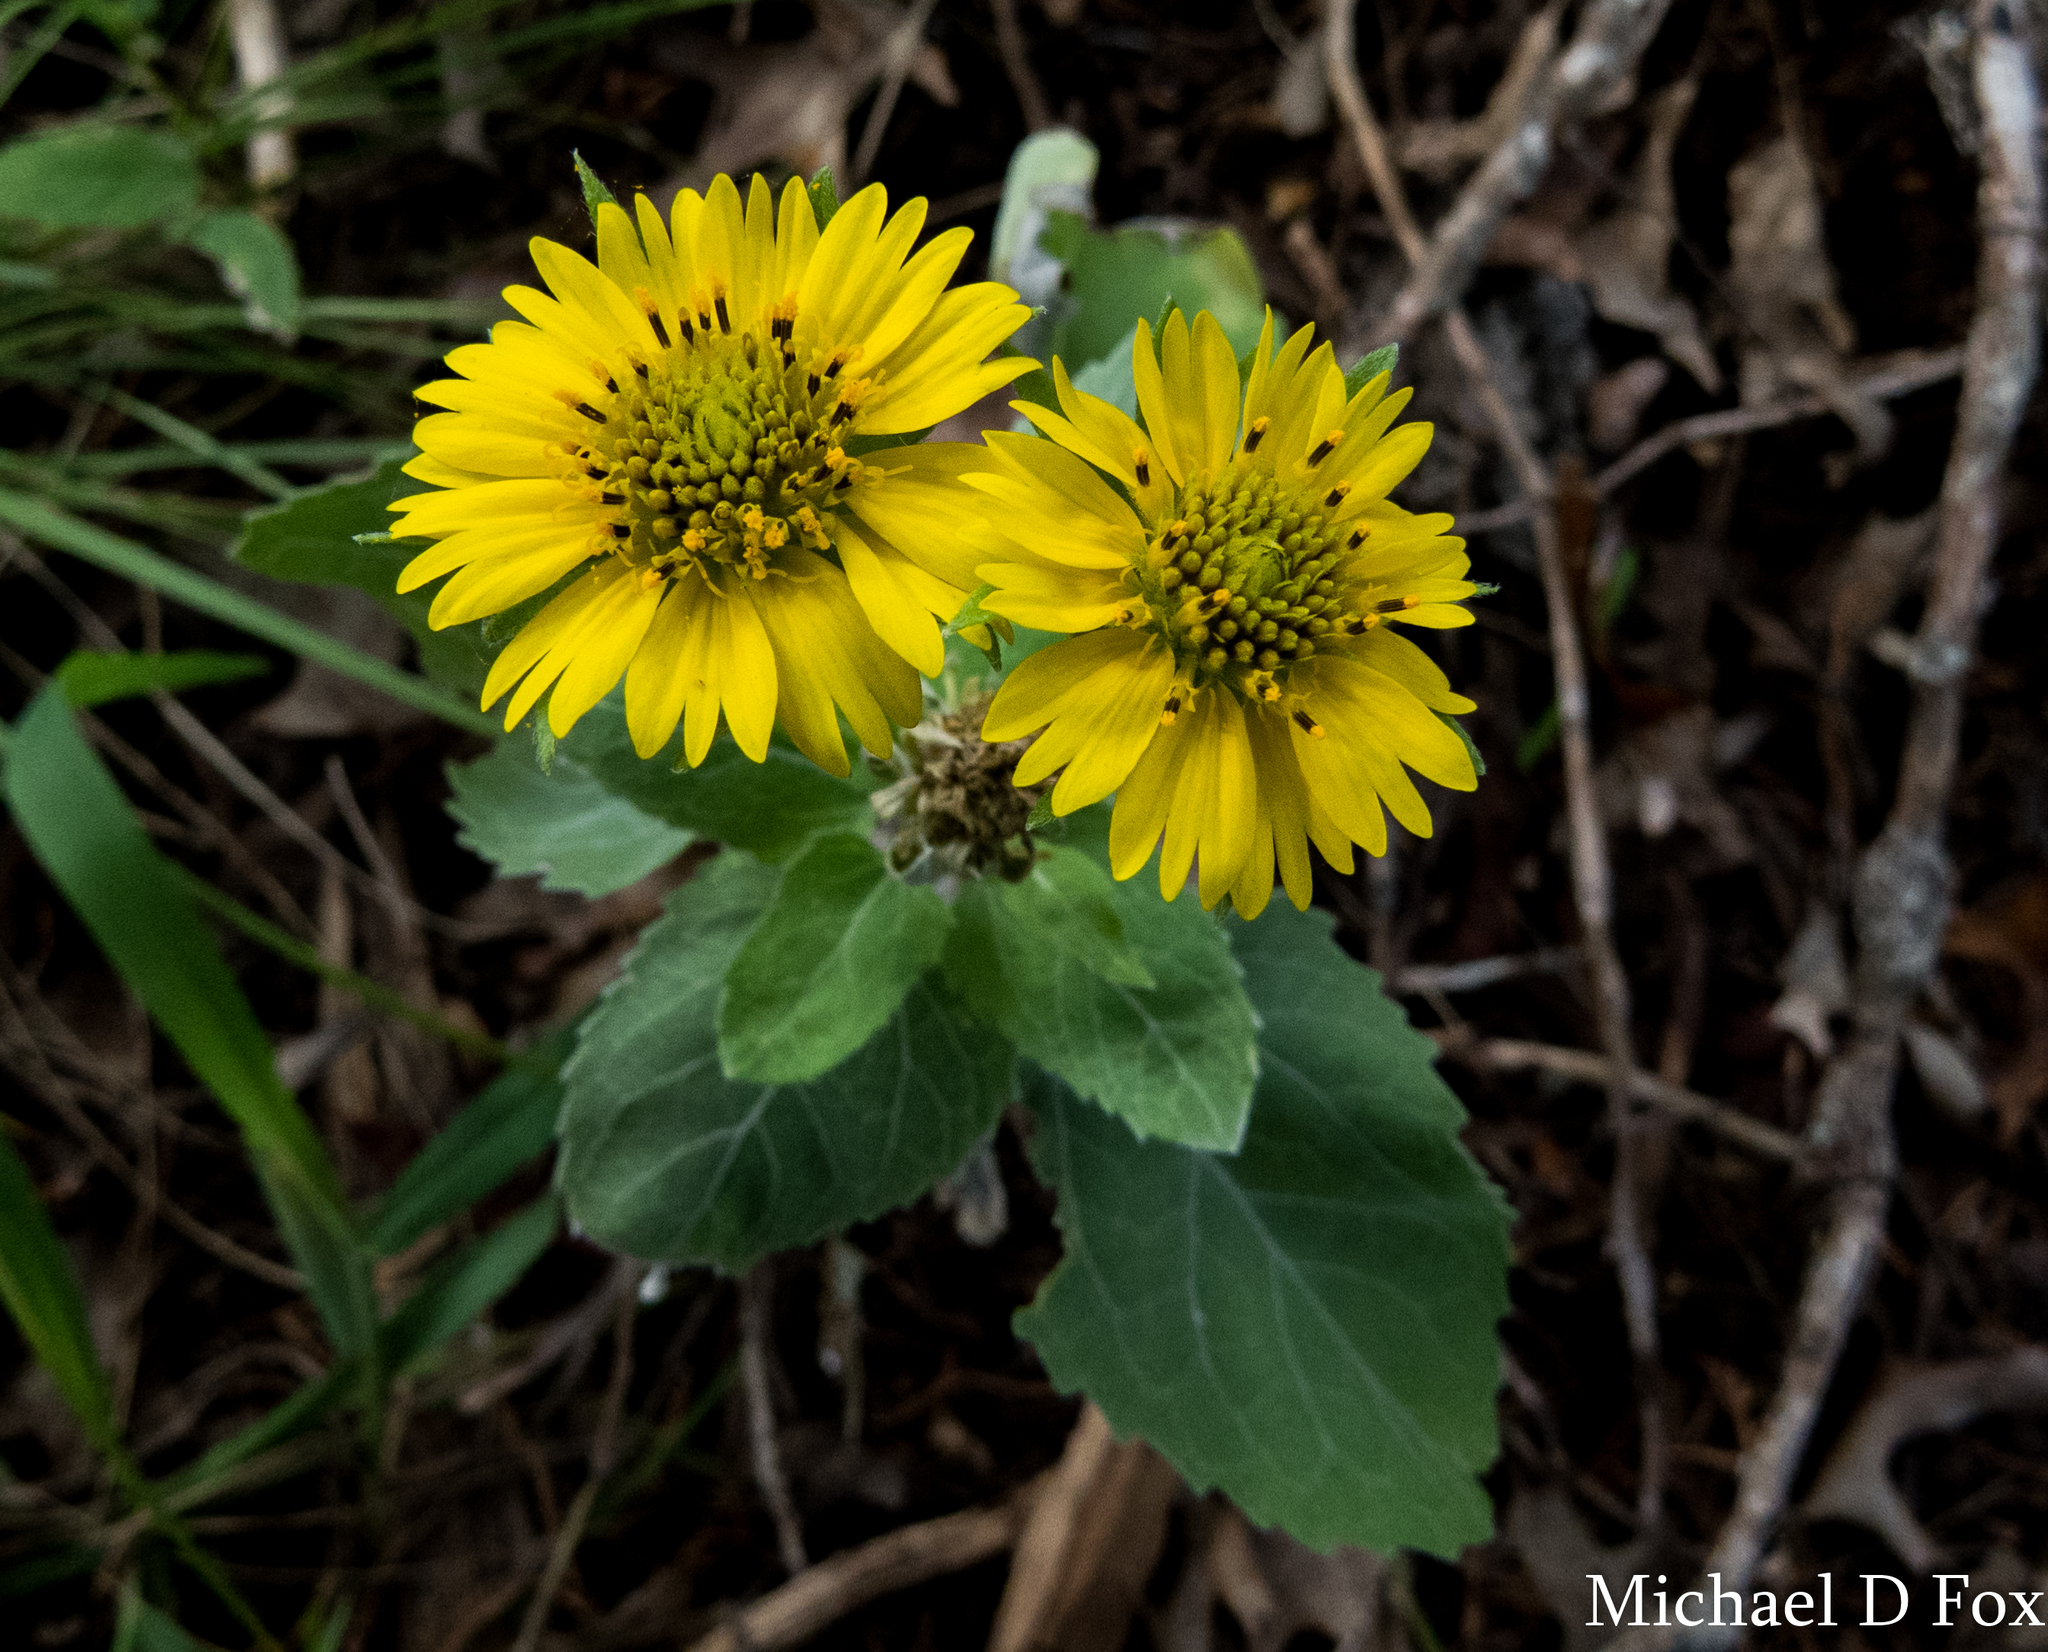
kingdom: Plantae
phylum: Tracheophyta
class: Magnoliopsida
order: Asterales
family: Asteraceae
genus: Verbesina
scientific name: Verbesina encelioides
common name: Golden crownbeard
